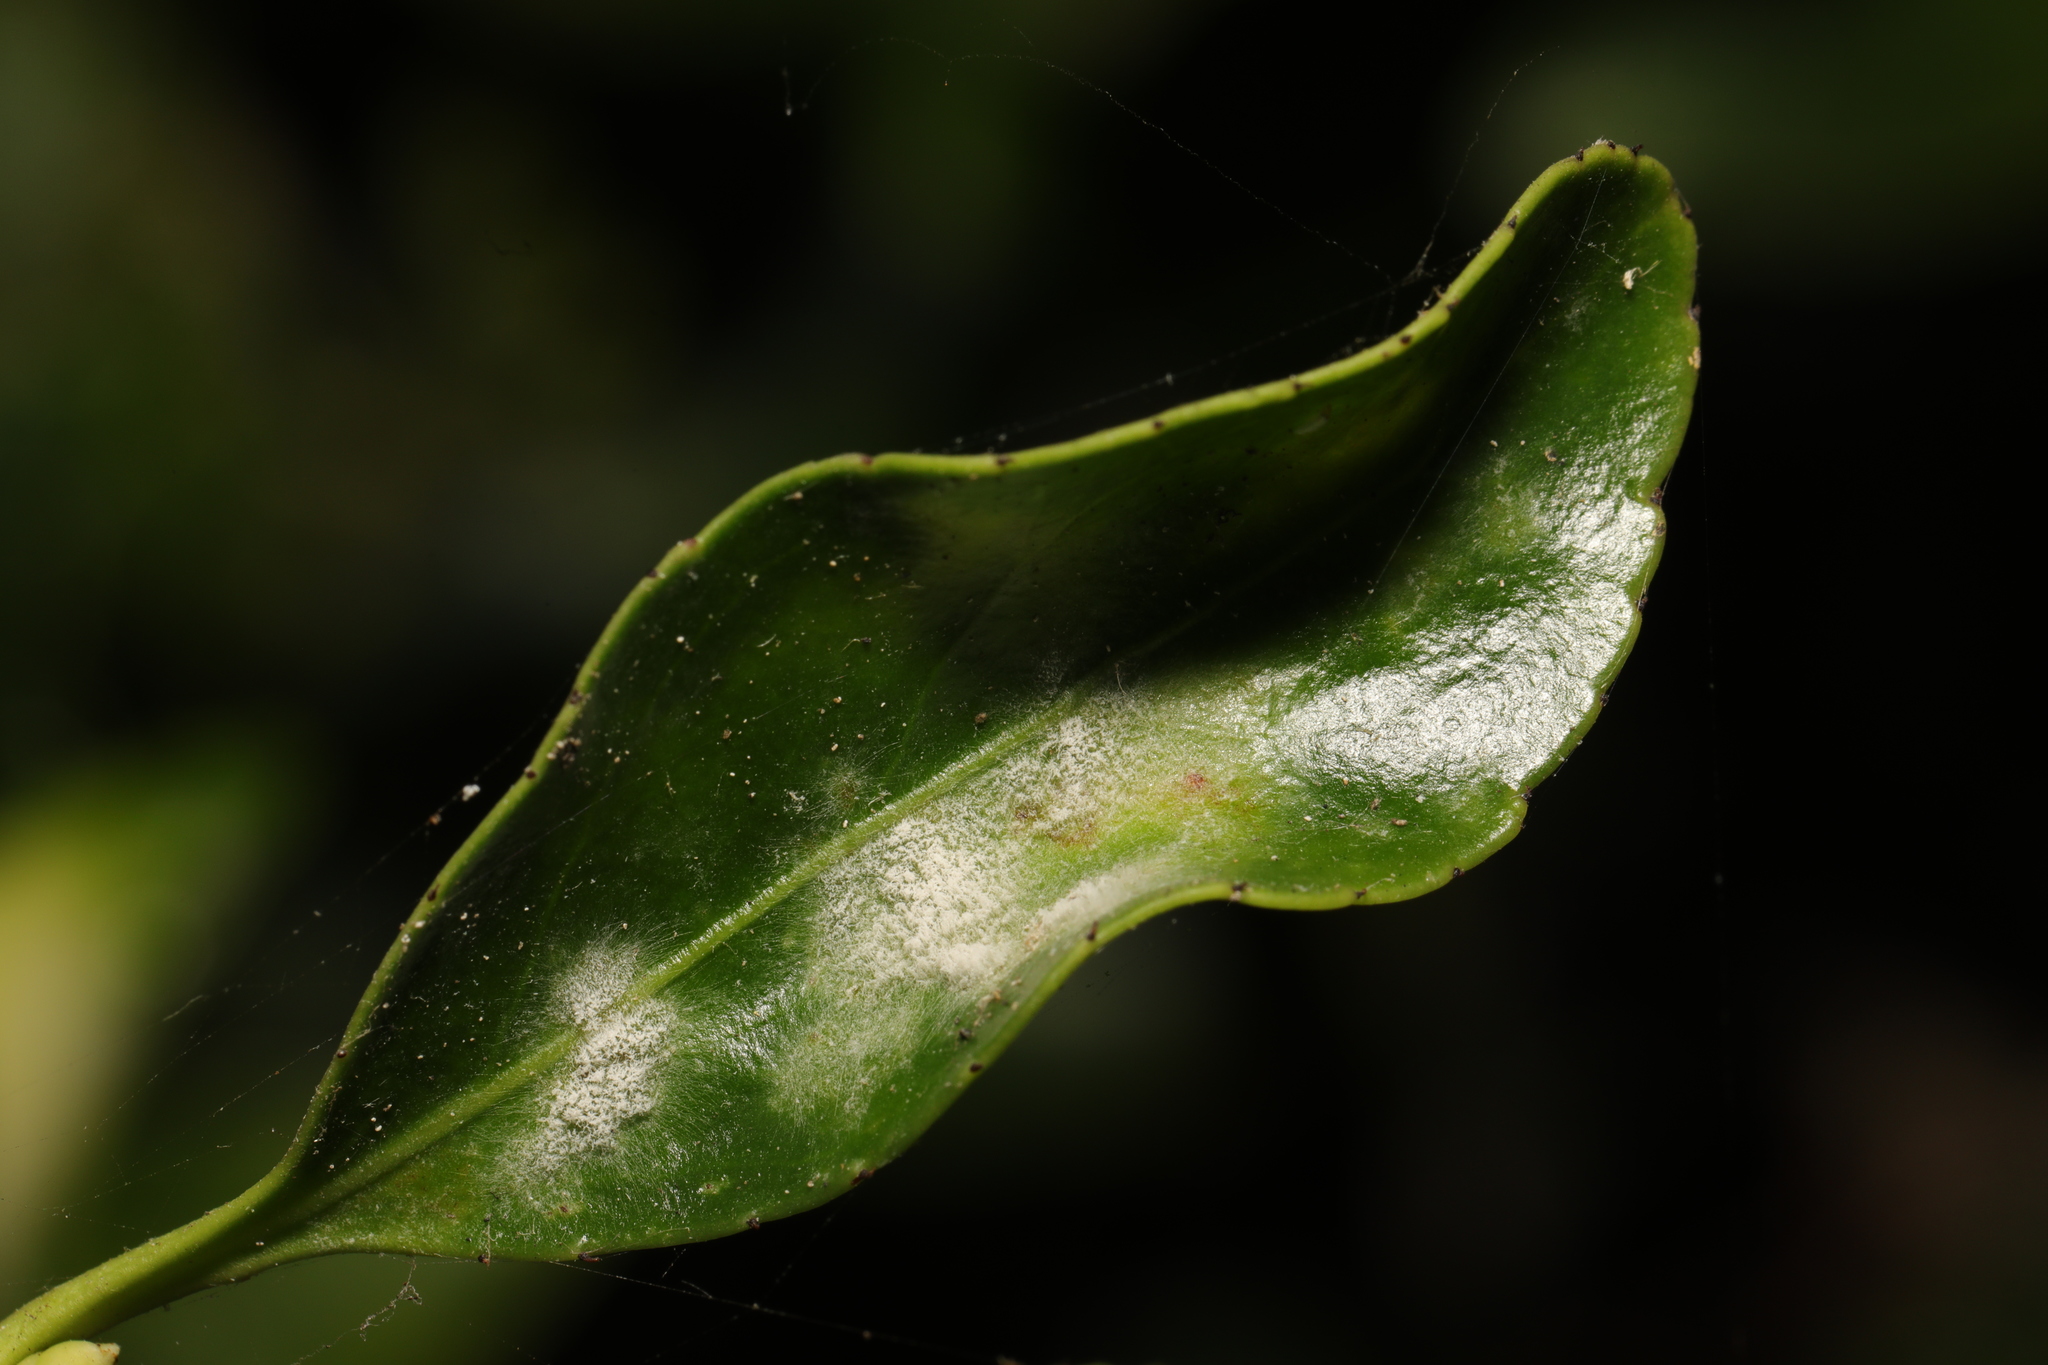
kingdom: Fungi
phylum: Ascomycota
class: Leotiomycetes
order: Helotiales
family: Erysiphaceae
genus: Erysiphe
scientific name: Erysiphe euonymicola
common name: Spindletree mildew
